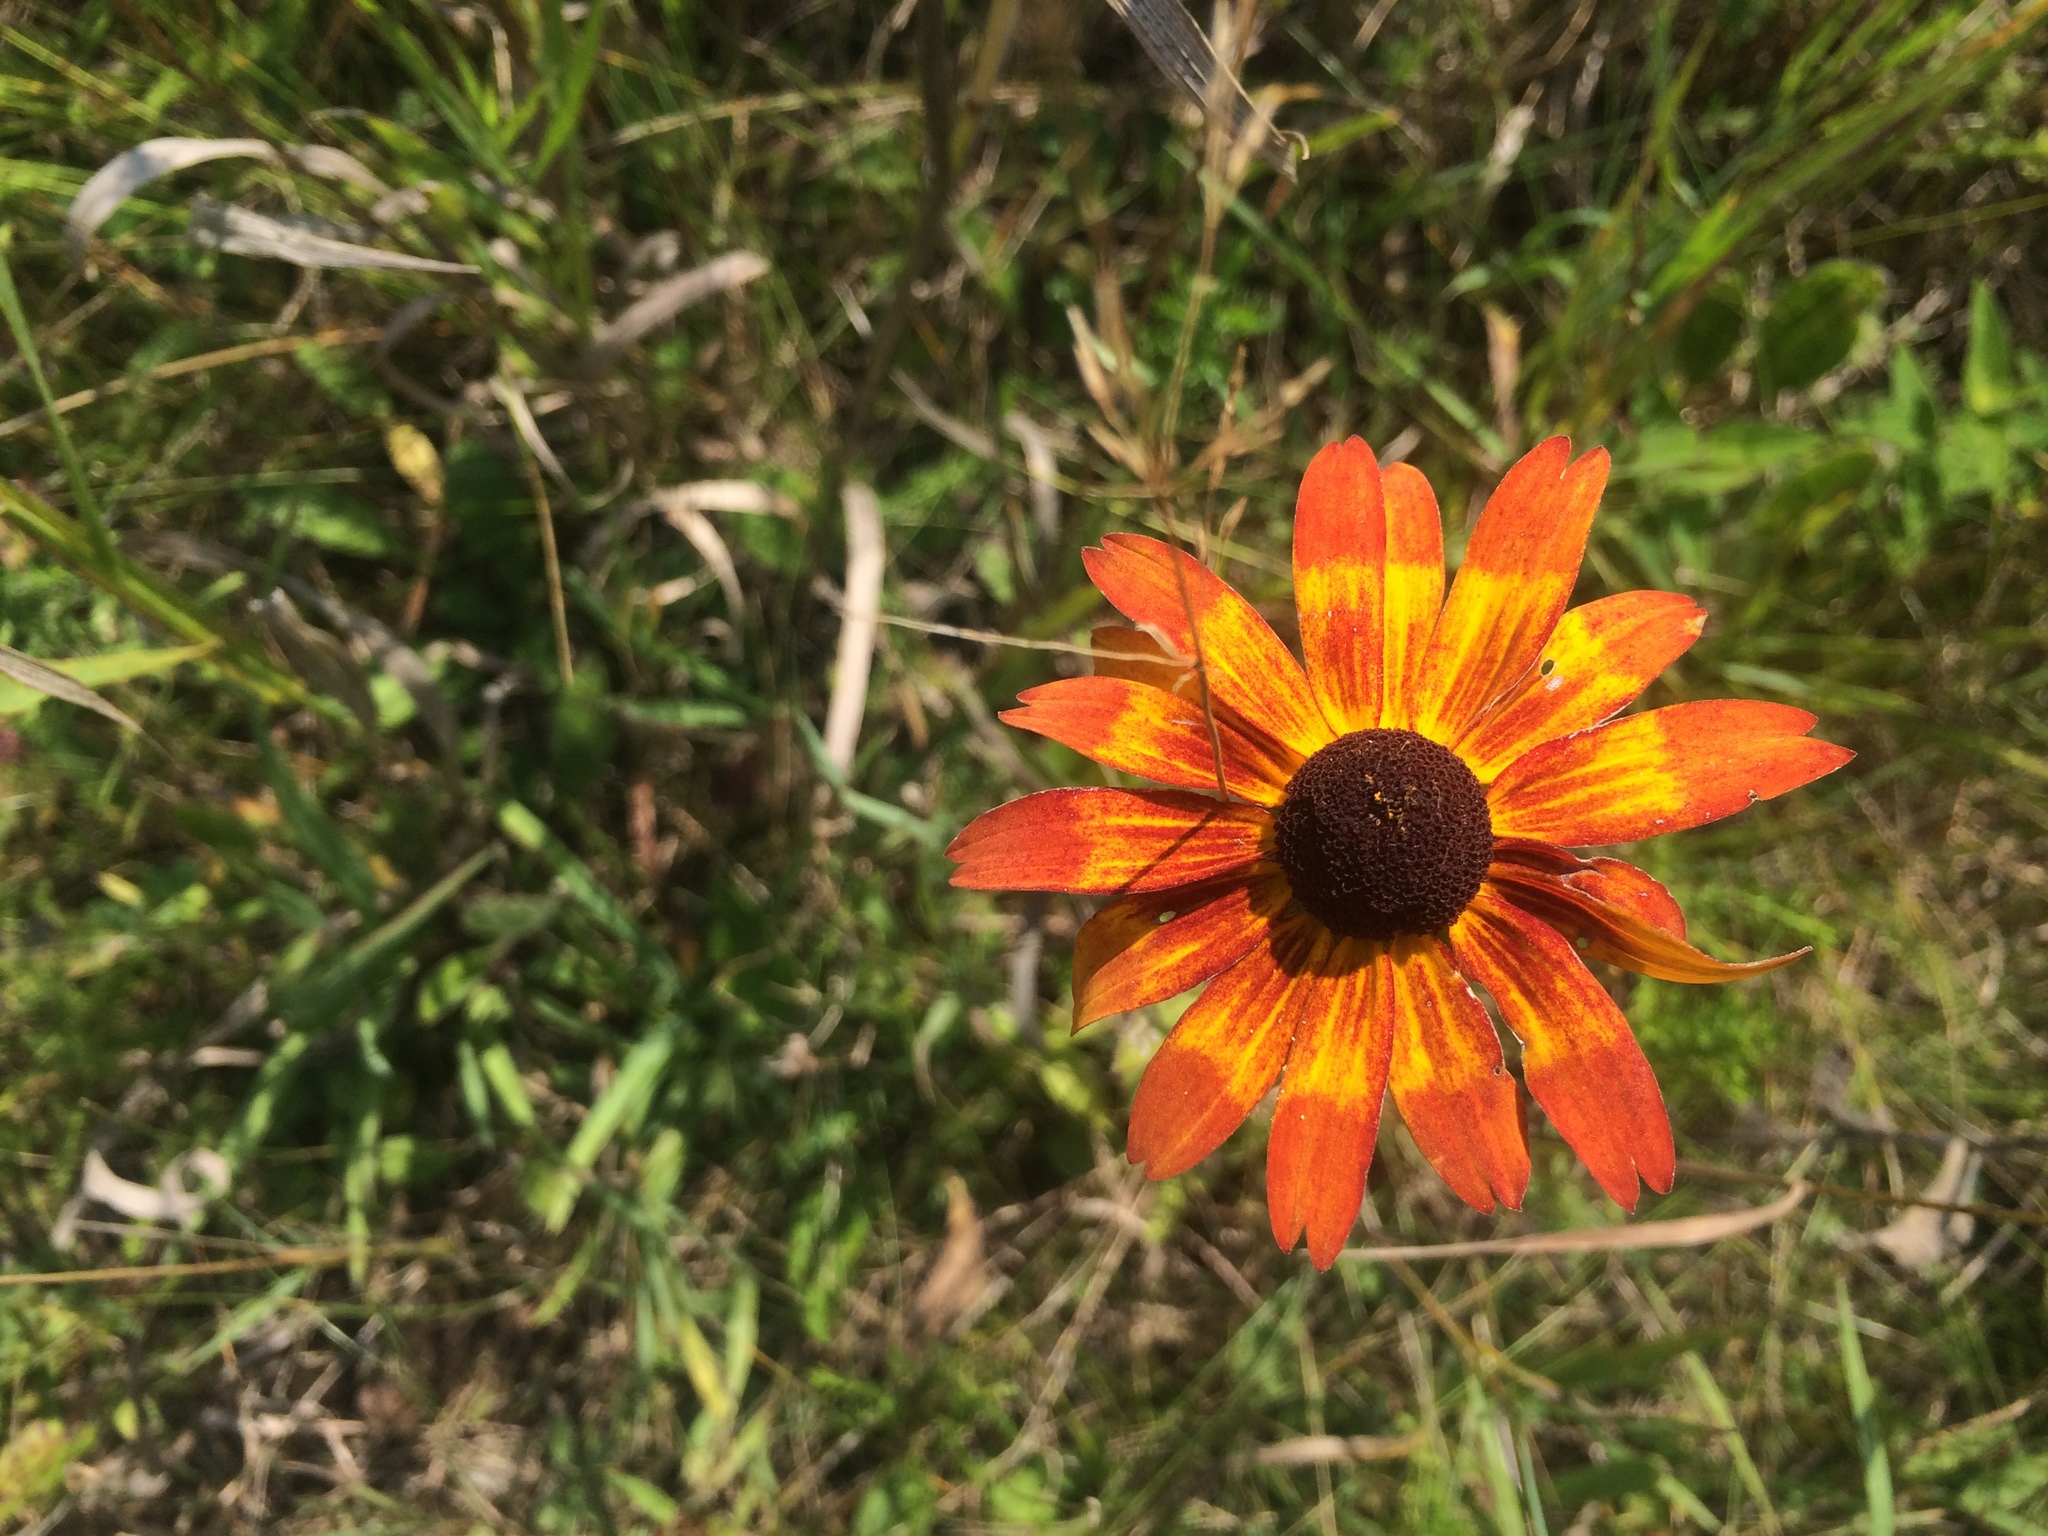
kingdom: Plantae
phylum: Tracheophyta
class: Magnoliopsida
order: Asterales
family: Asteraceae
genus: Rudbeckia
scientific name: Rudbeckia hirta
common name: Black-eyed-susan
